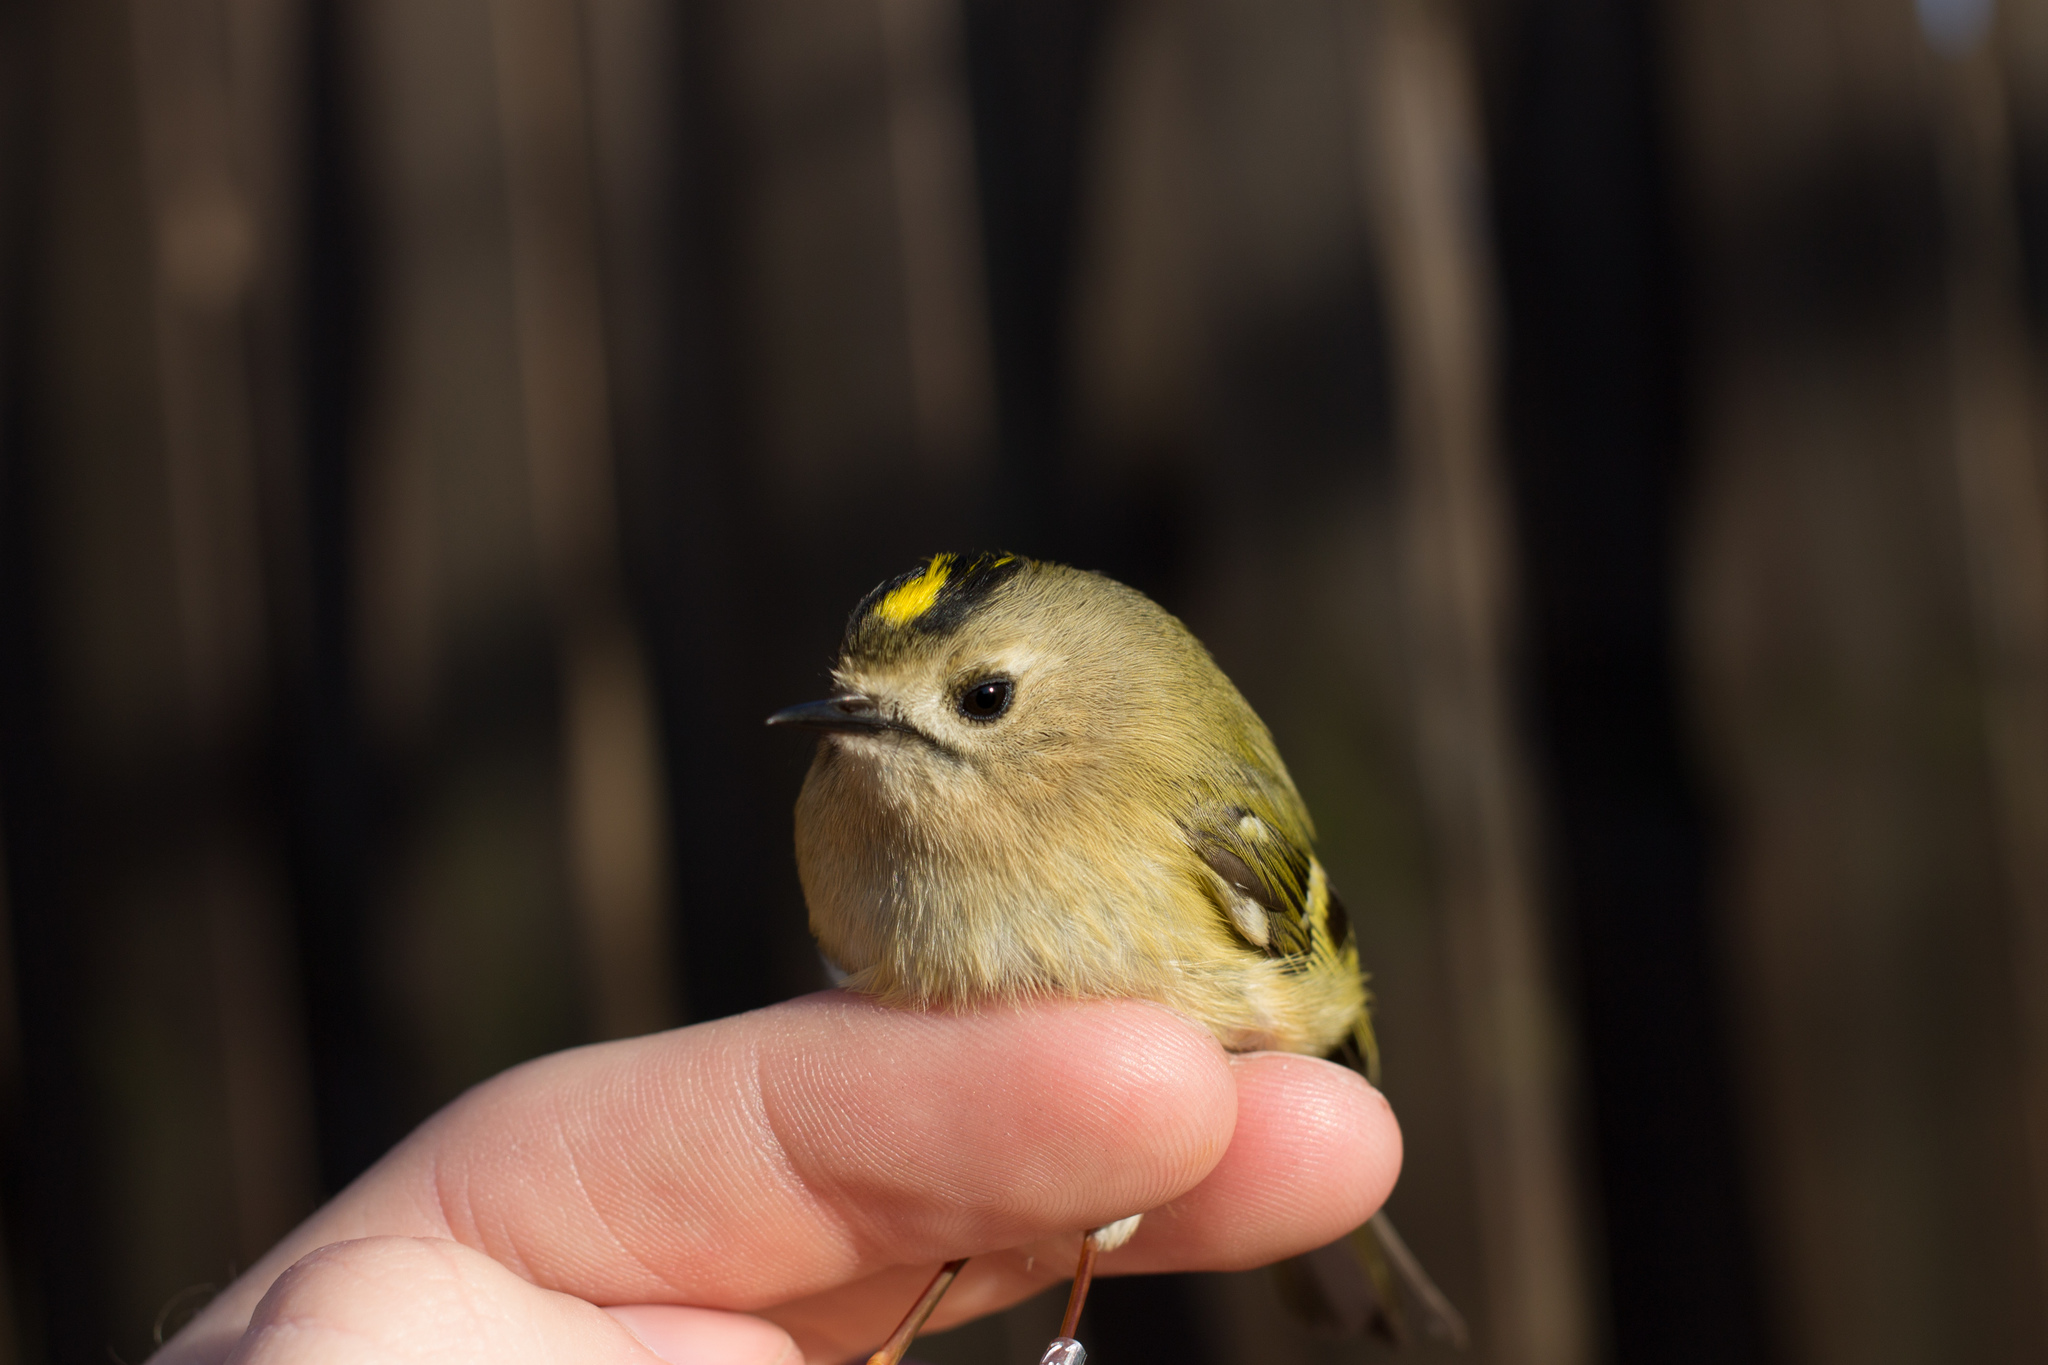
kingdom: Animalia
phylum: Chordata
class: Aves
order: Passeriformes
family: Regulidae
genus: Regulus
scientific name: Regulus regulus
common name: Goldcrest
